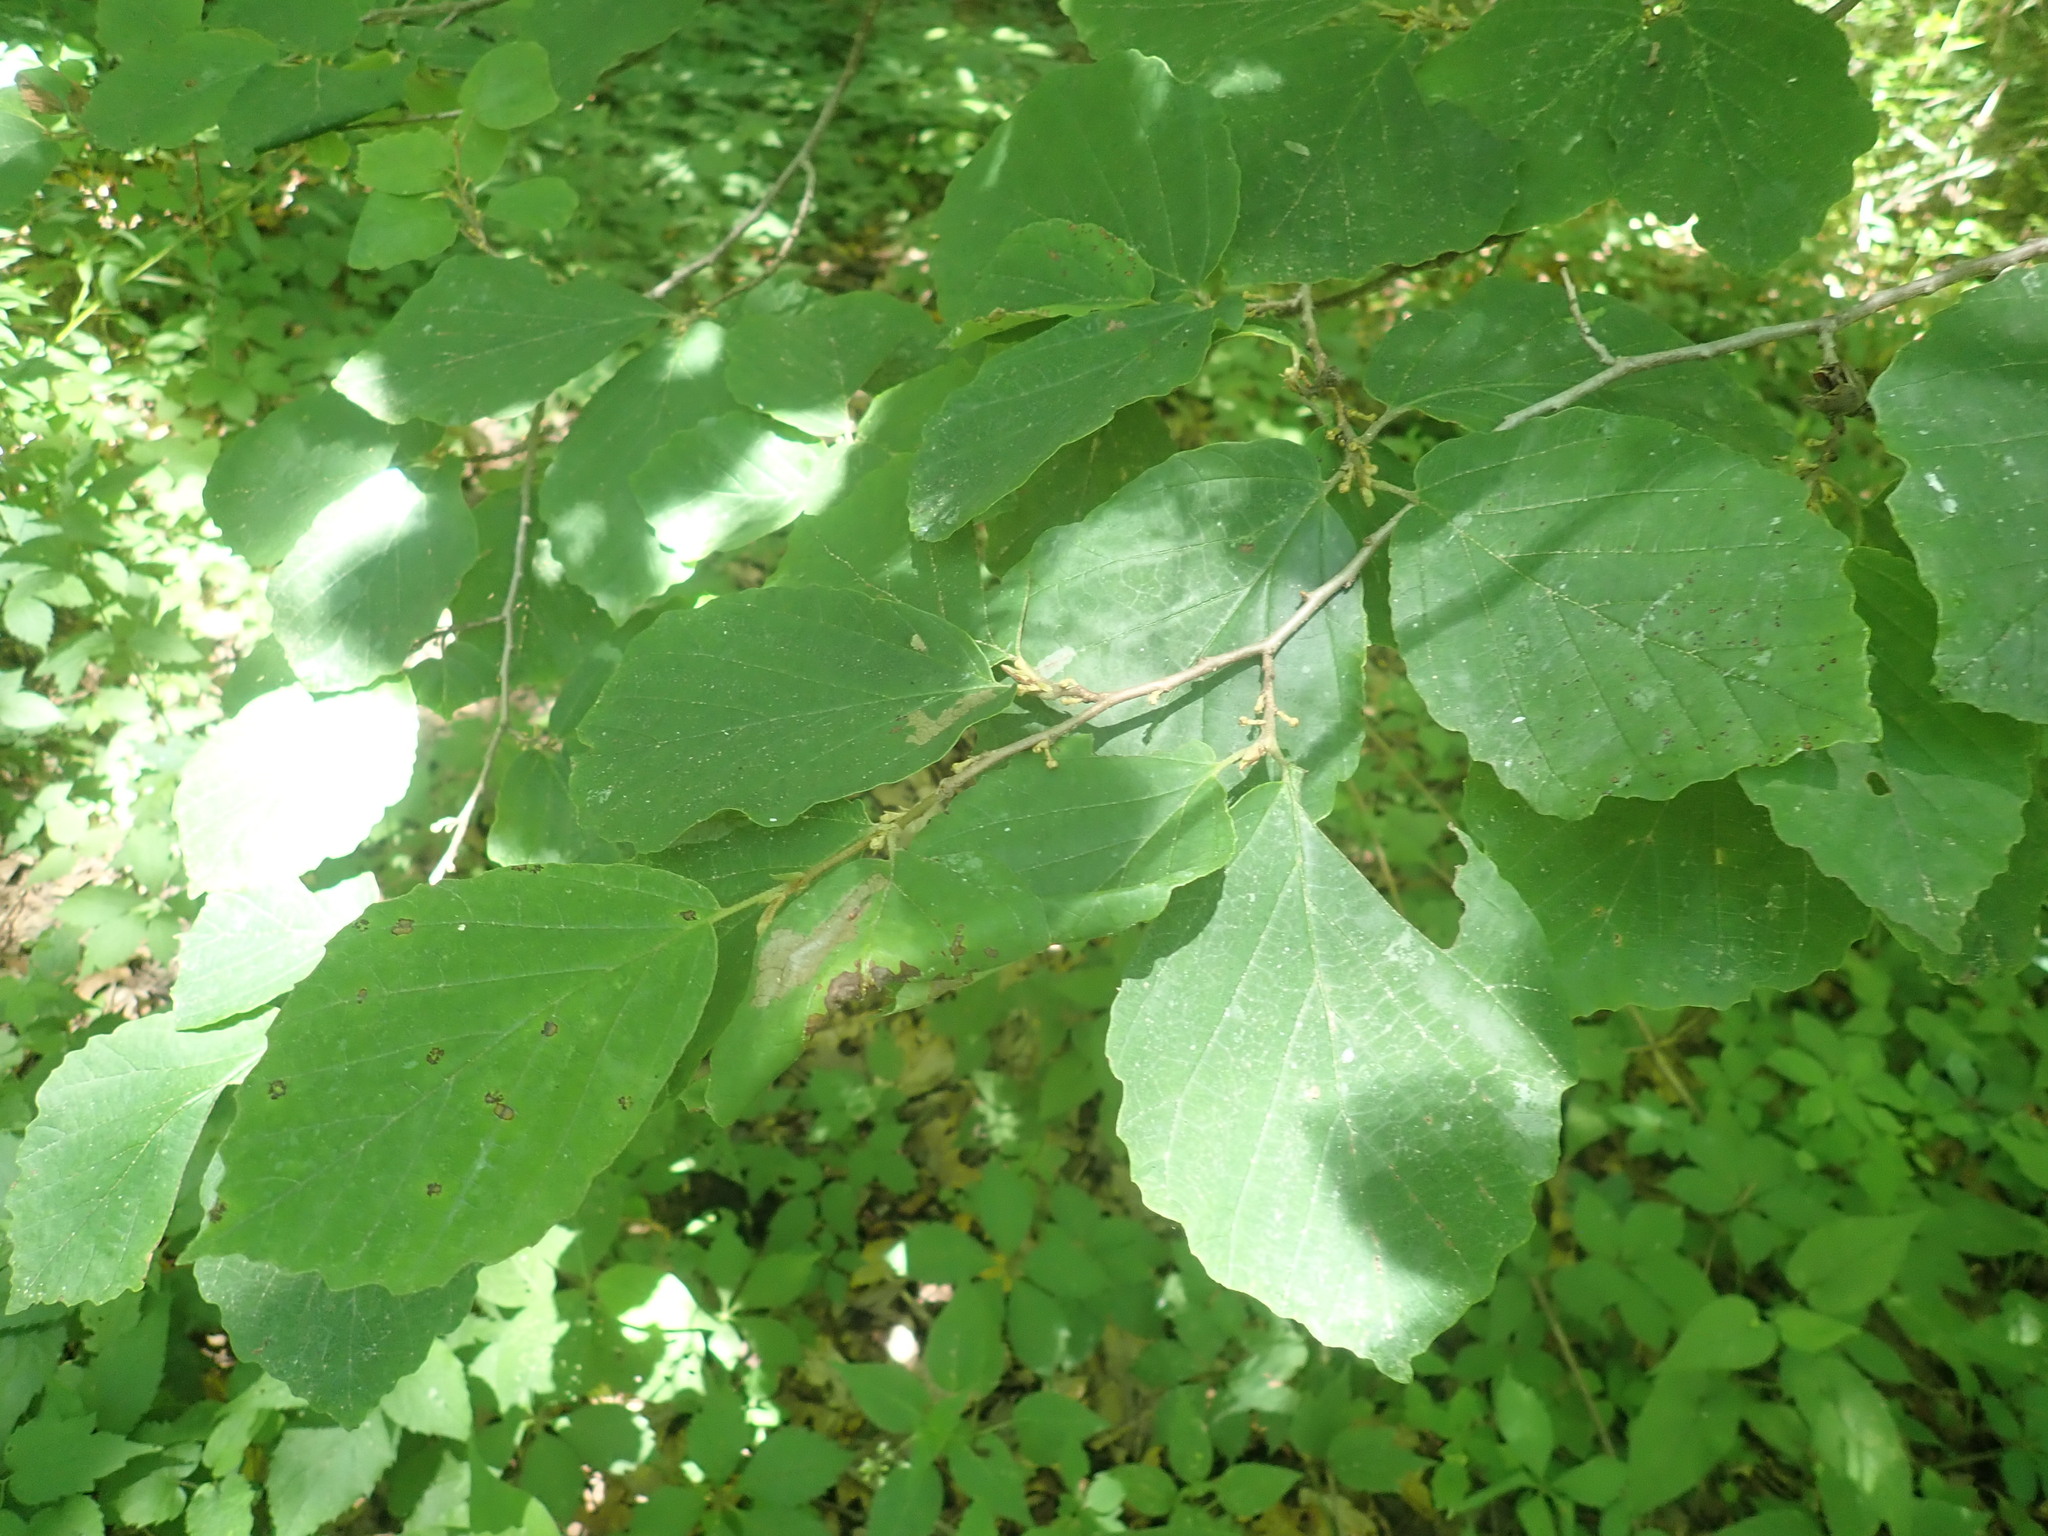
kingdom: Plantae
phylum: Tracheophyta
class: Magnoliopsida
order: Saxifragales
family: Hamamelidaceae
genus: Hamamelis
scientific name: Hamamelis virginiana
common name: Witch-hazel
